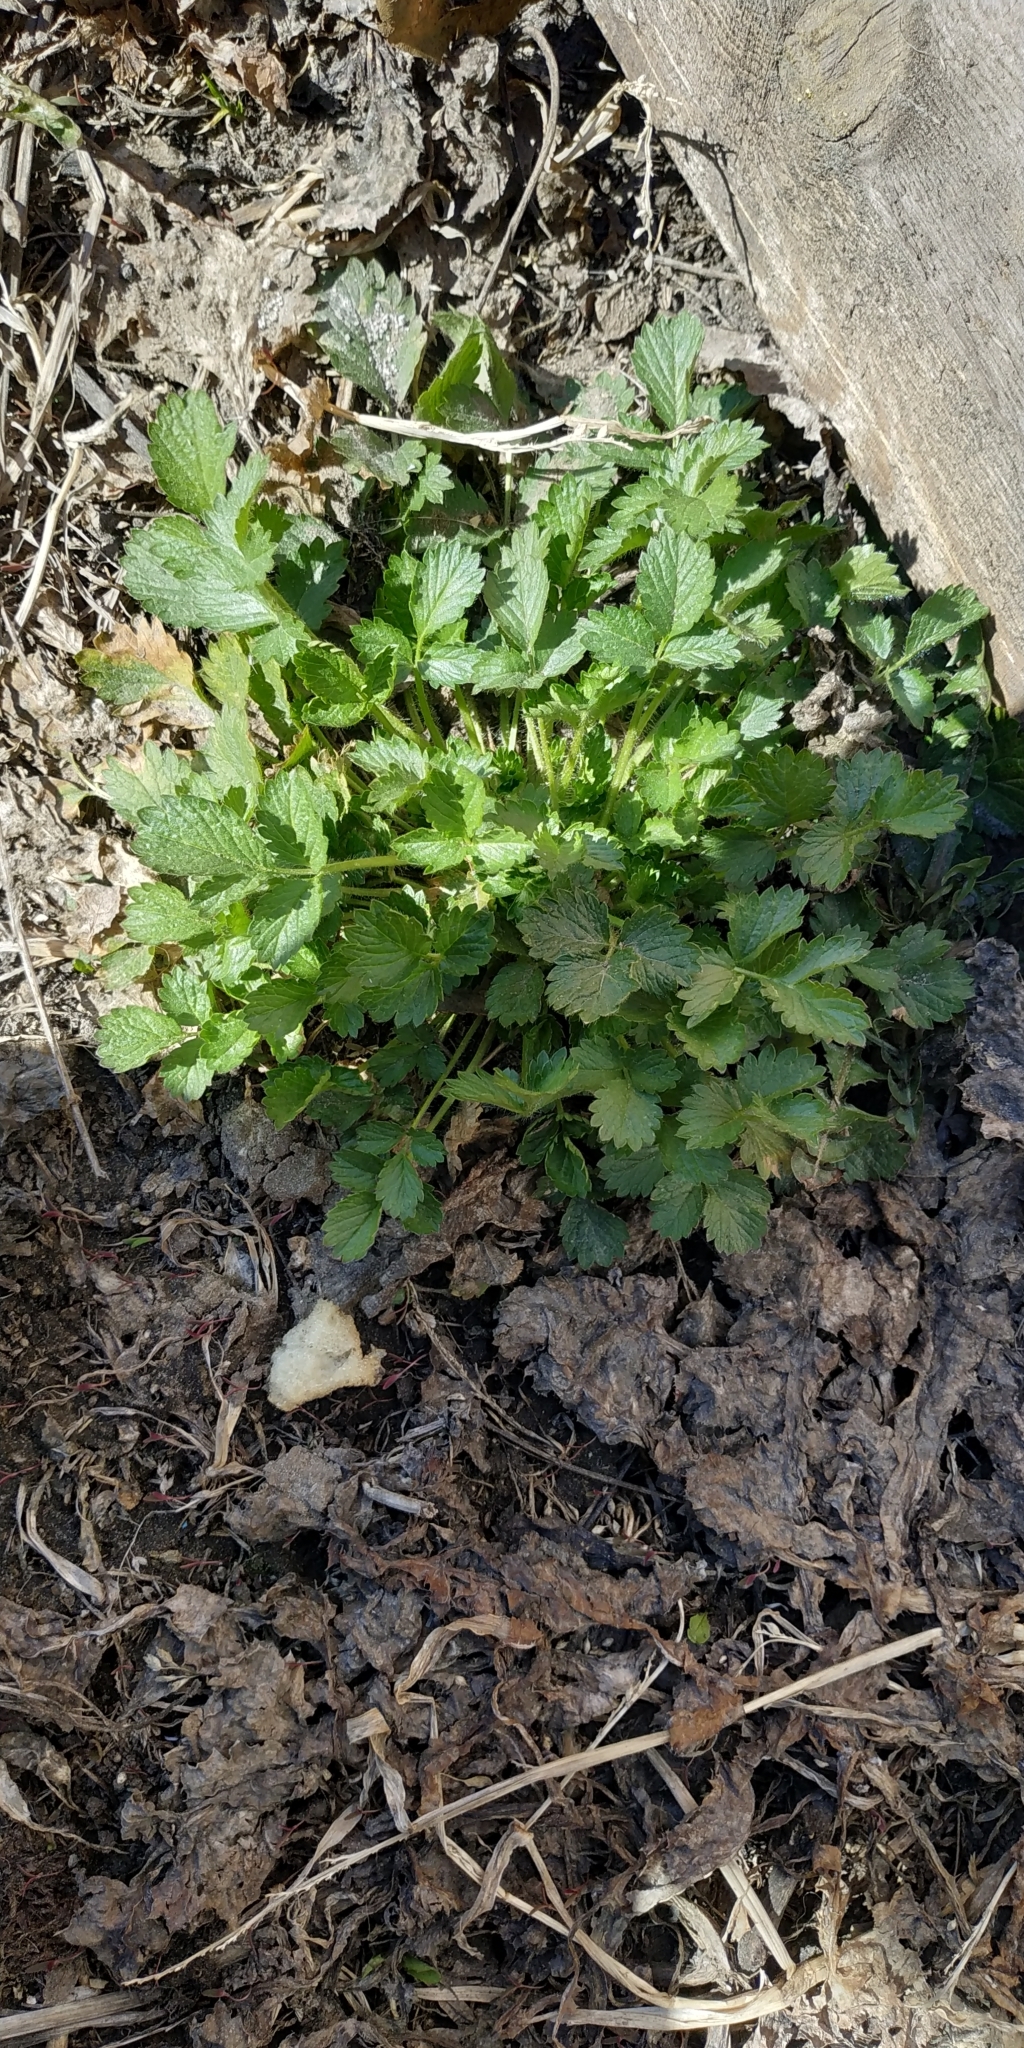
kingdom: Plantae
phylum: Tracheophyta
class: Magnoliopsida
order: Rosales
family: Rosaceae
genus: Potentilla
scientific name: Potentilla norvegica
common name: Ternate-leaved cinquefoil
